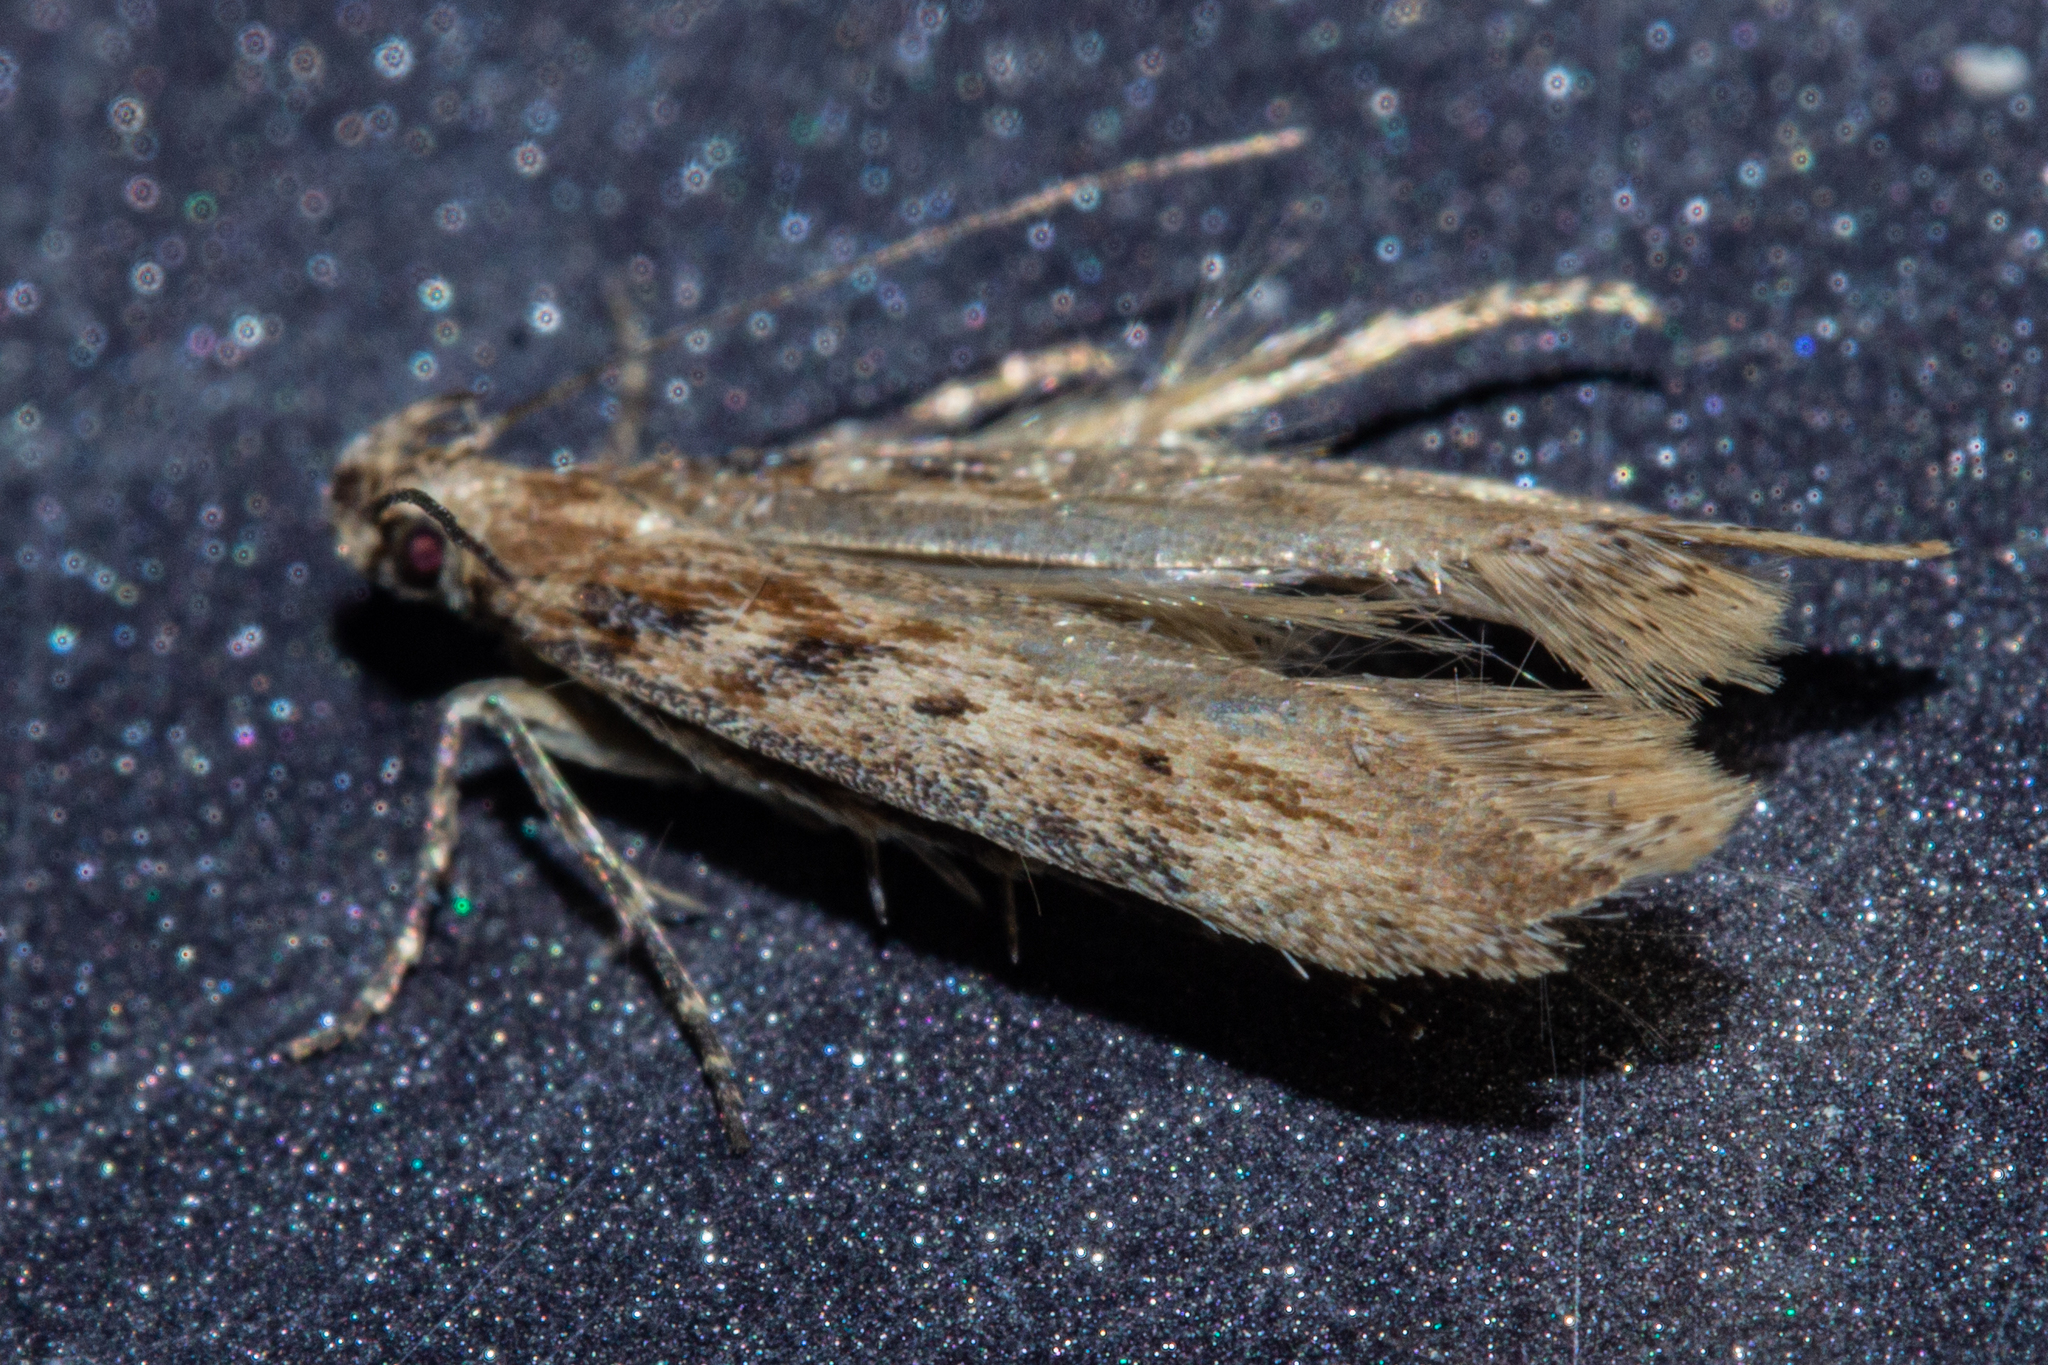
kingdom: Animalia
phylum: Arthropoda
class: Insecta
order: Lepidoptera
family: Gelechiidae
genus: Kiwaia
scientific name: Kiwaia brontophora
